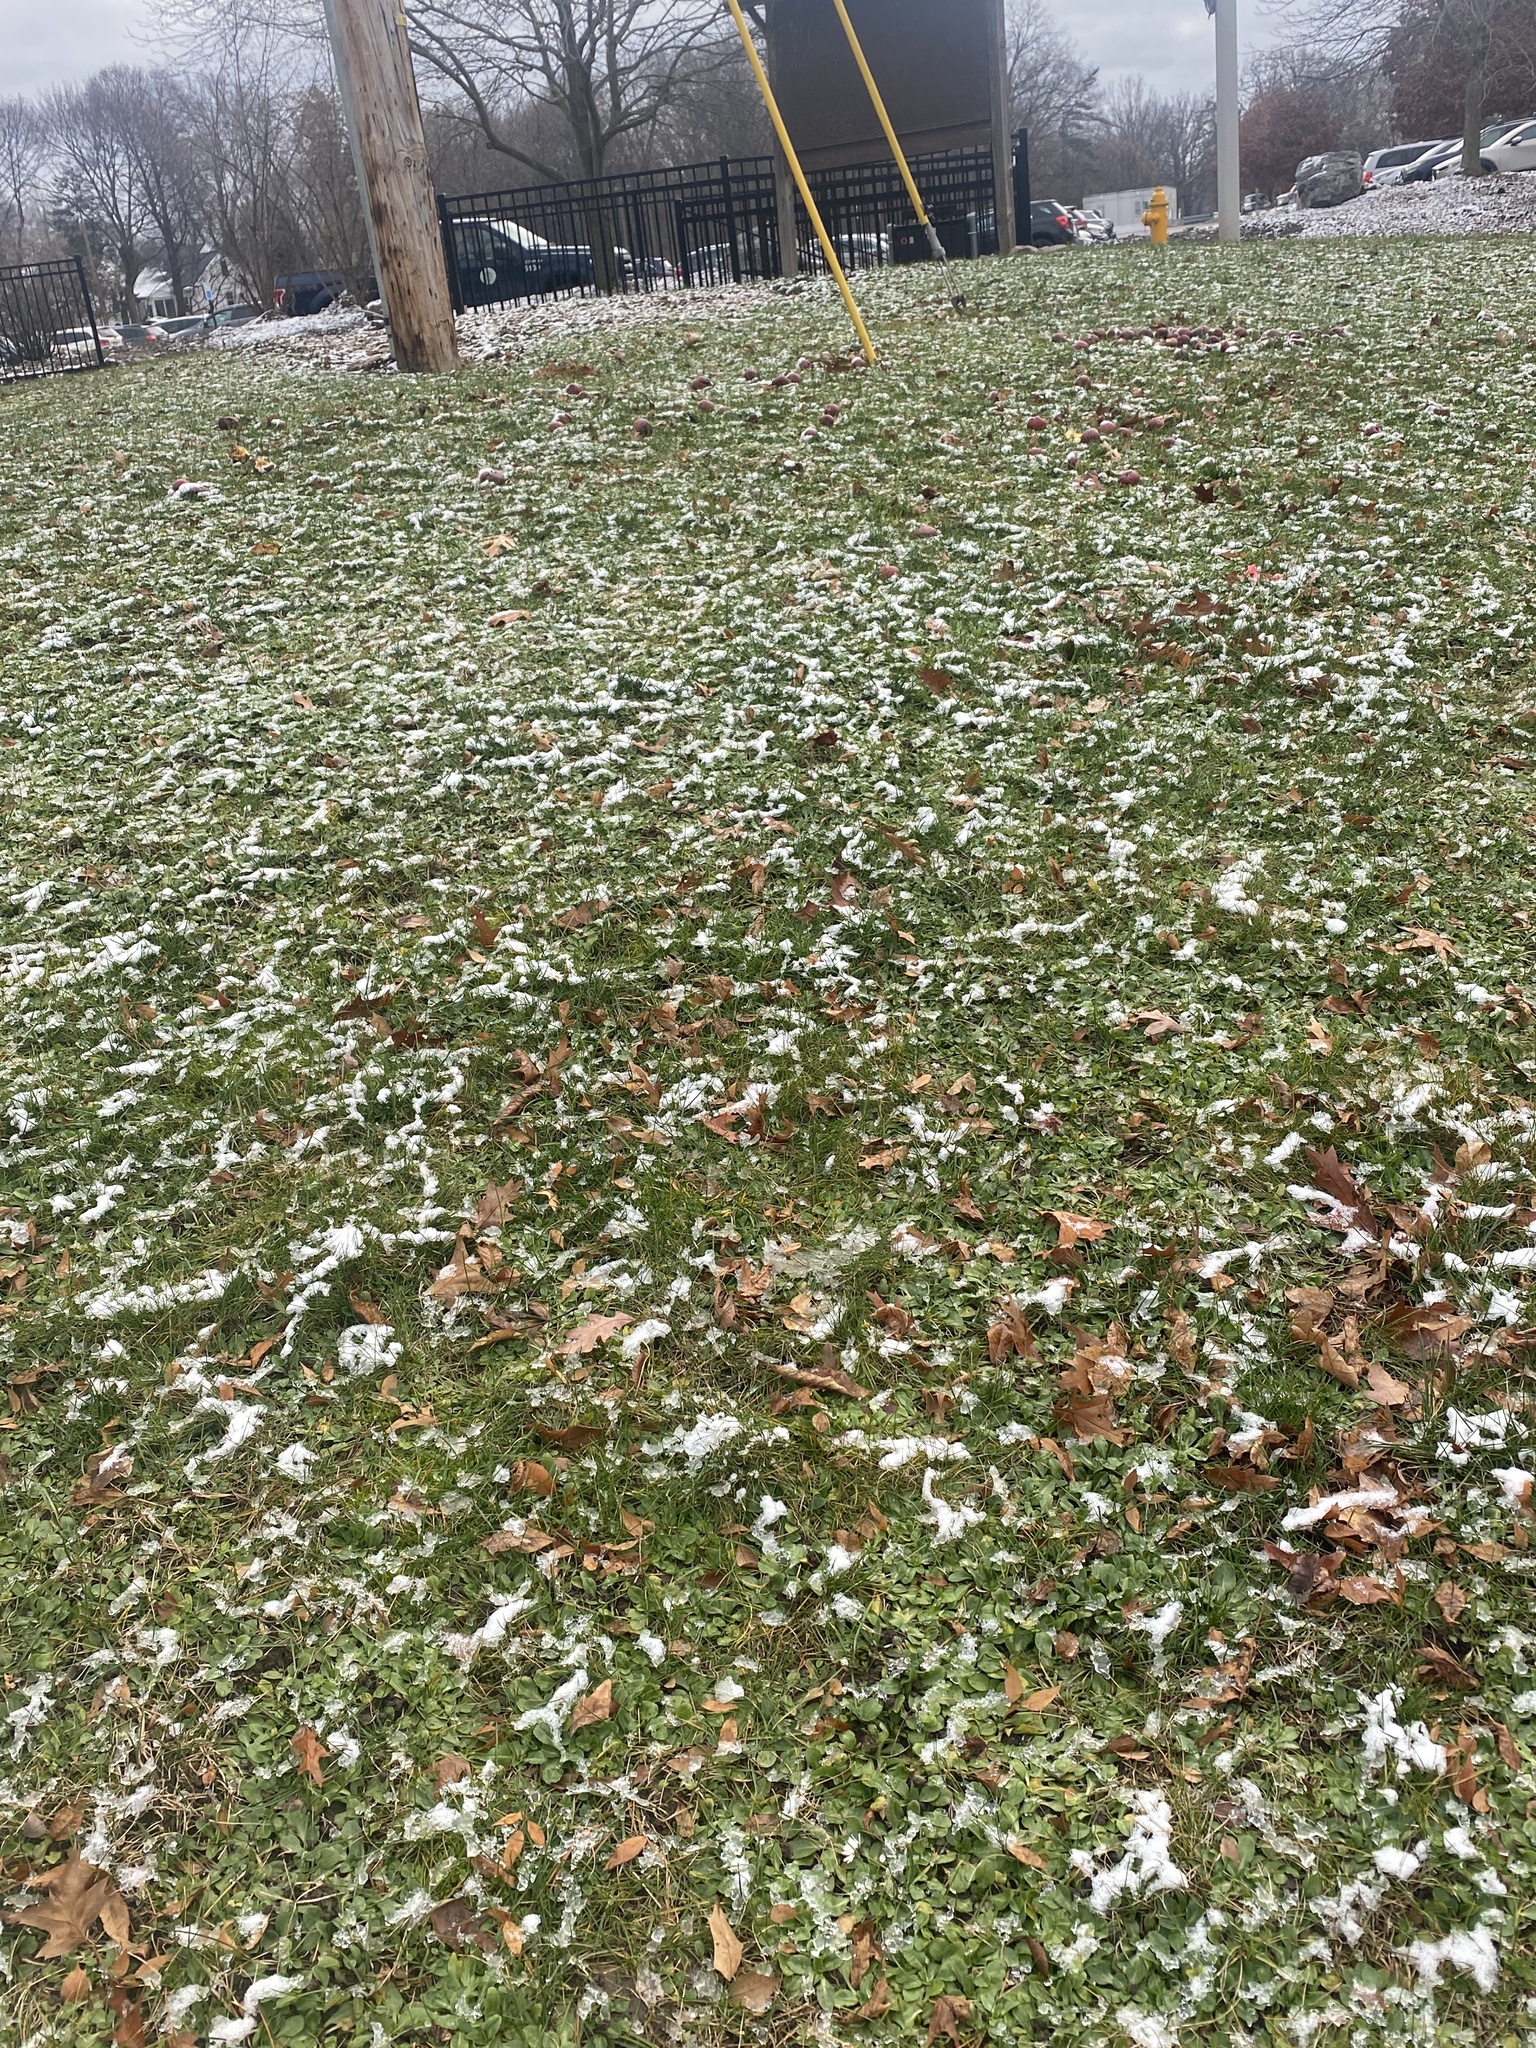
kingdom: Plantae
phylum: Tracheophyta
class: Magnoliopsida
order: Asterales
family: Asteraceae
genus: Bellis
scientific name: Bellis perennis
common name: Lawndaisy
